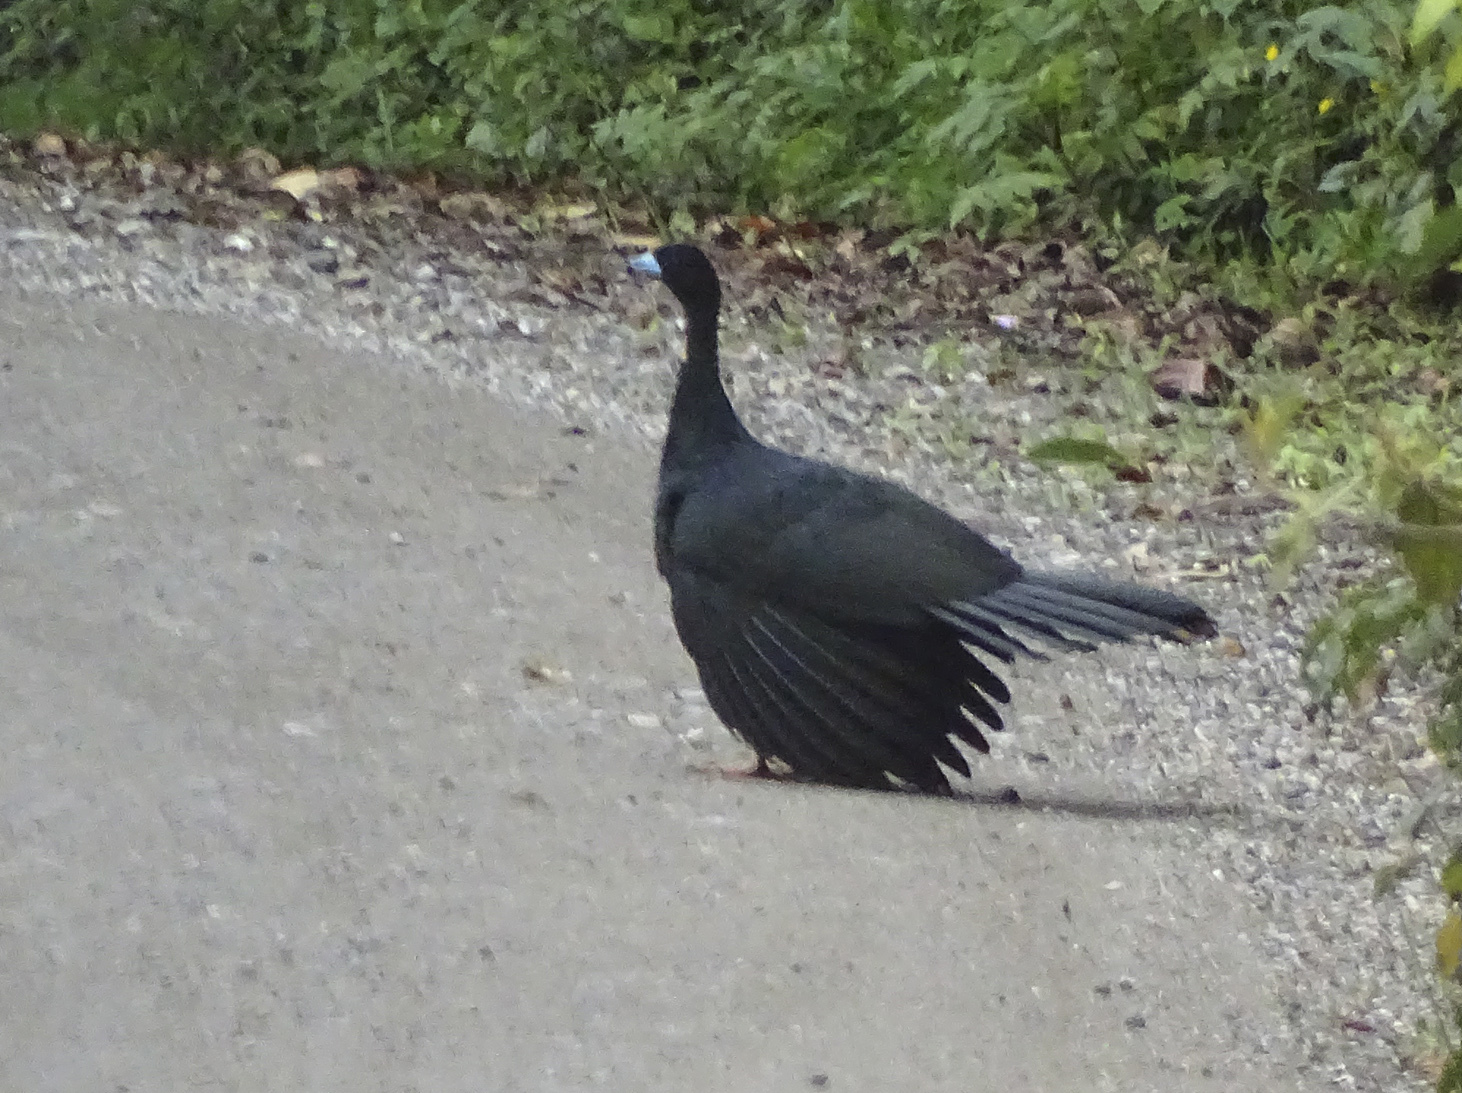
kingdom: Animalia
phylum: Chordata
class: Aves
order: Galliformes
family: Cracidae
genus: Aburria
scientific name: Aburria aburri
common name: Wattled guan
